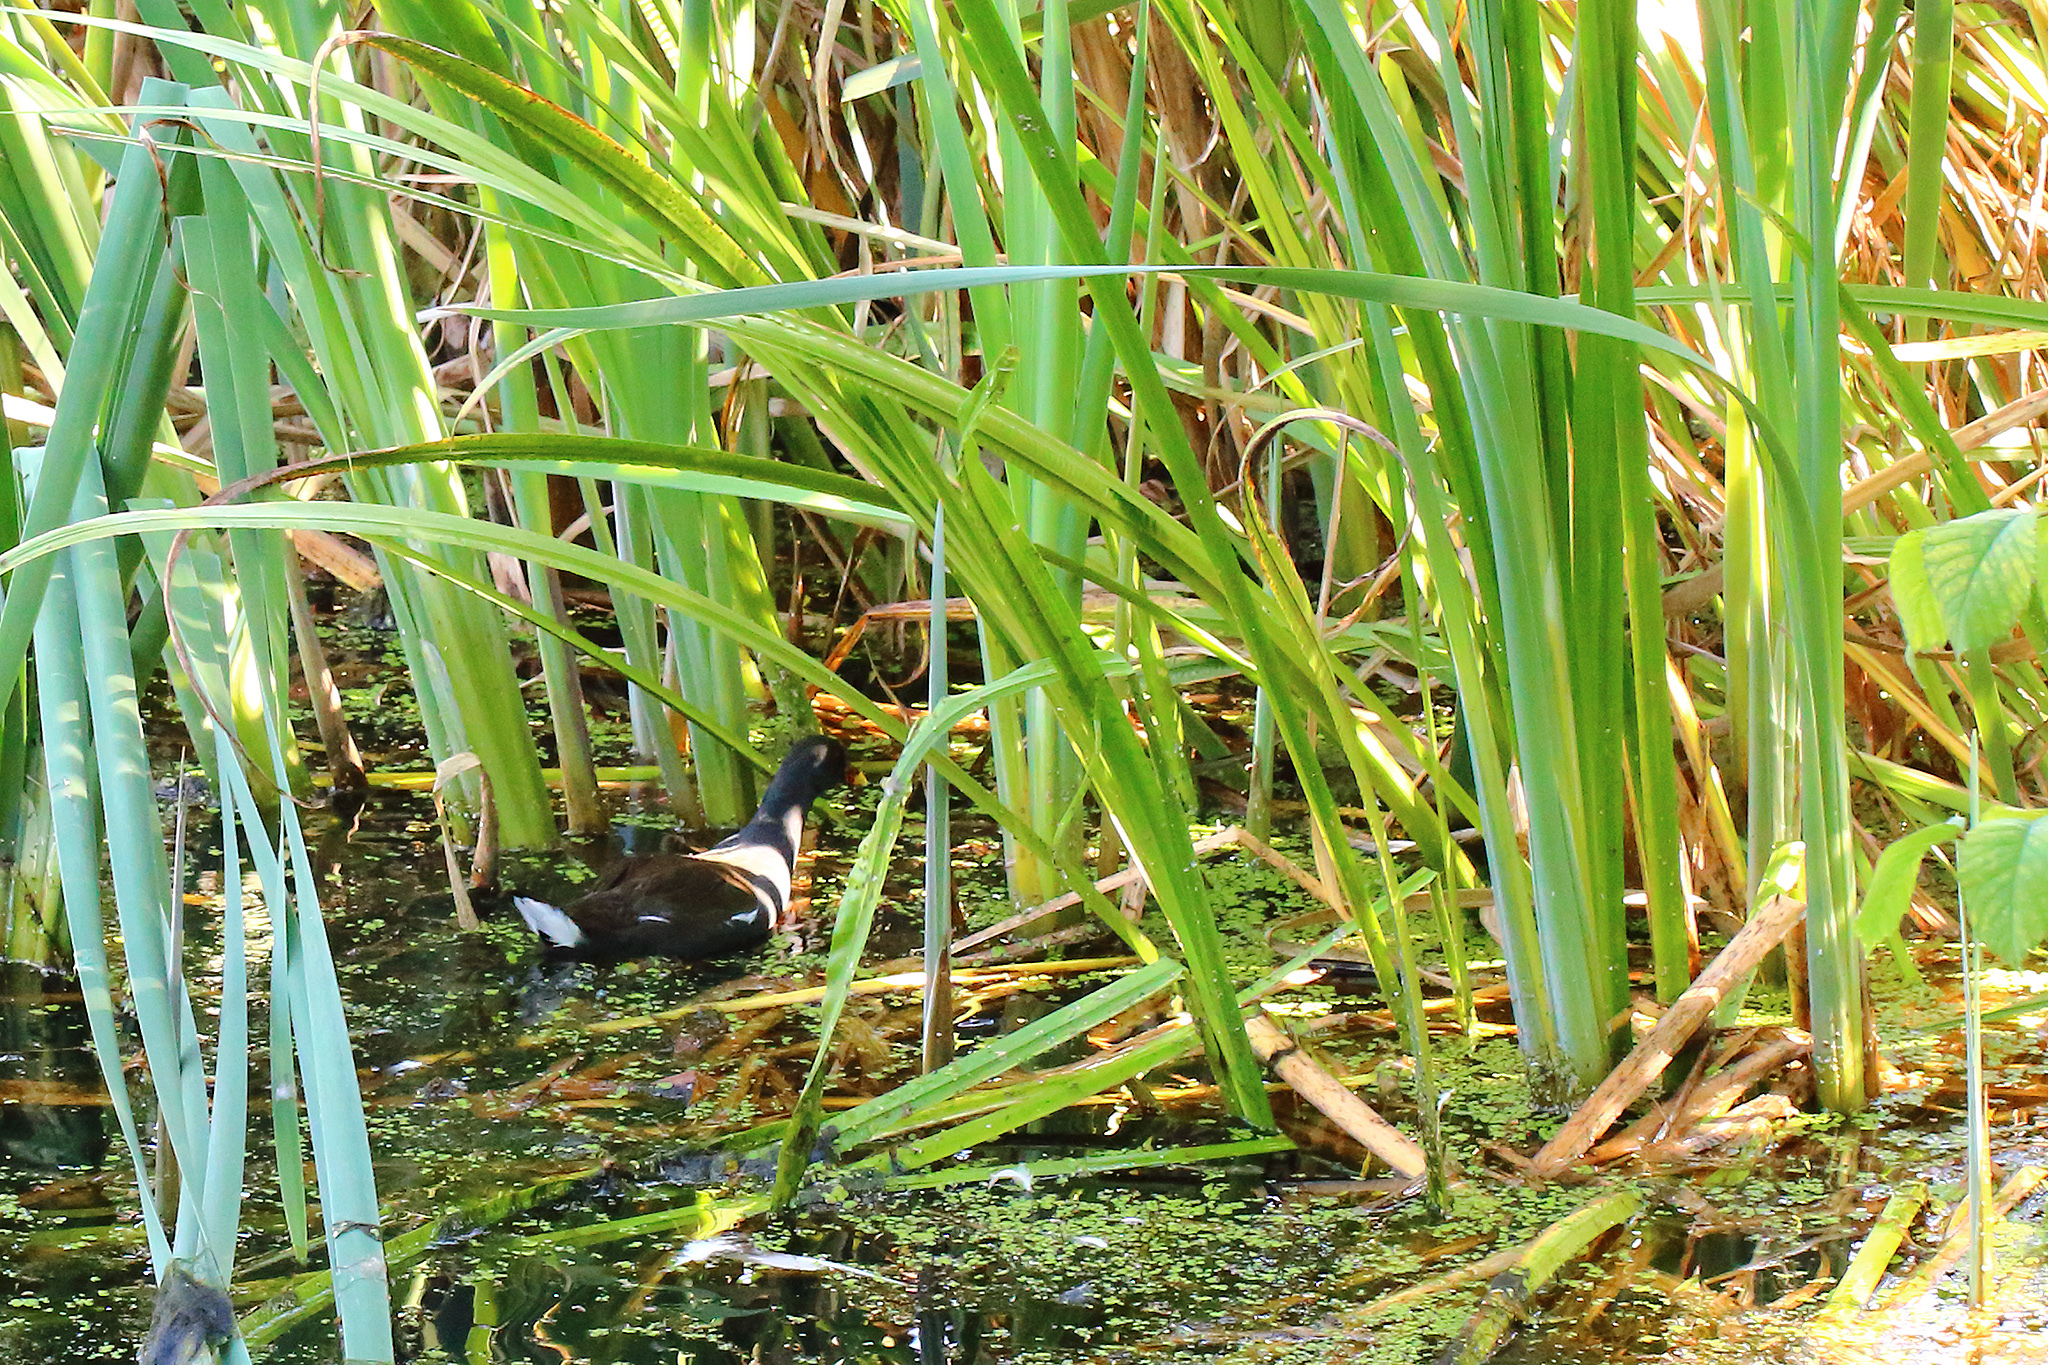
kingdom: Animalia
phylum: Chordata
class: Aves
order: Gruiformes
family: Rallidae
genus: Gallinula
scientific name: Gallinula chloropus
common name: Common moorhen
